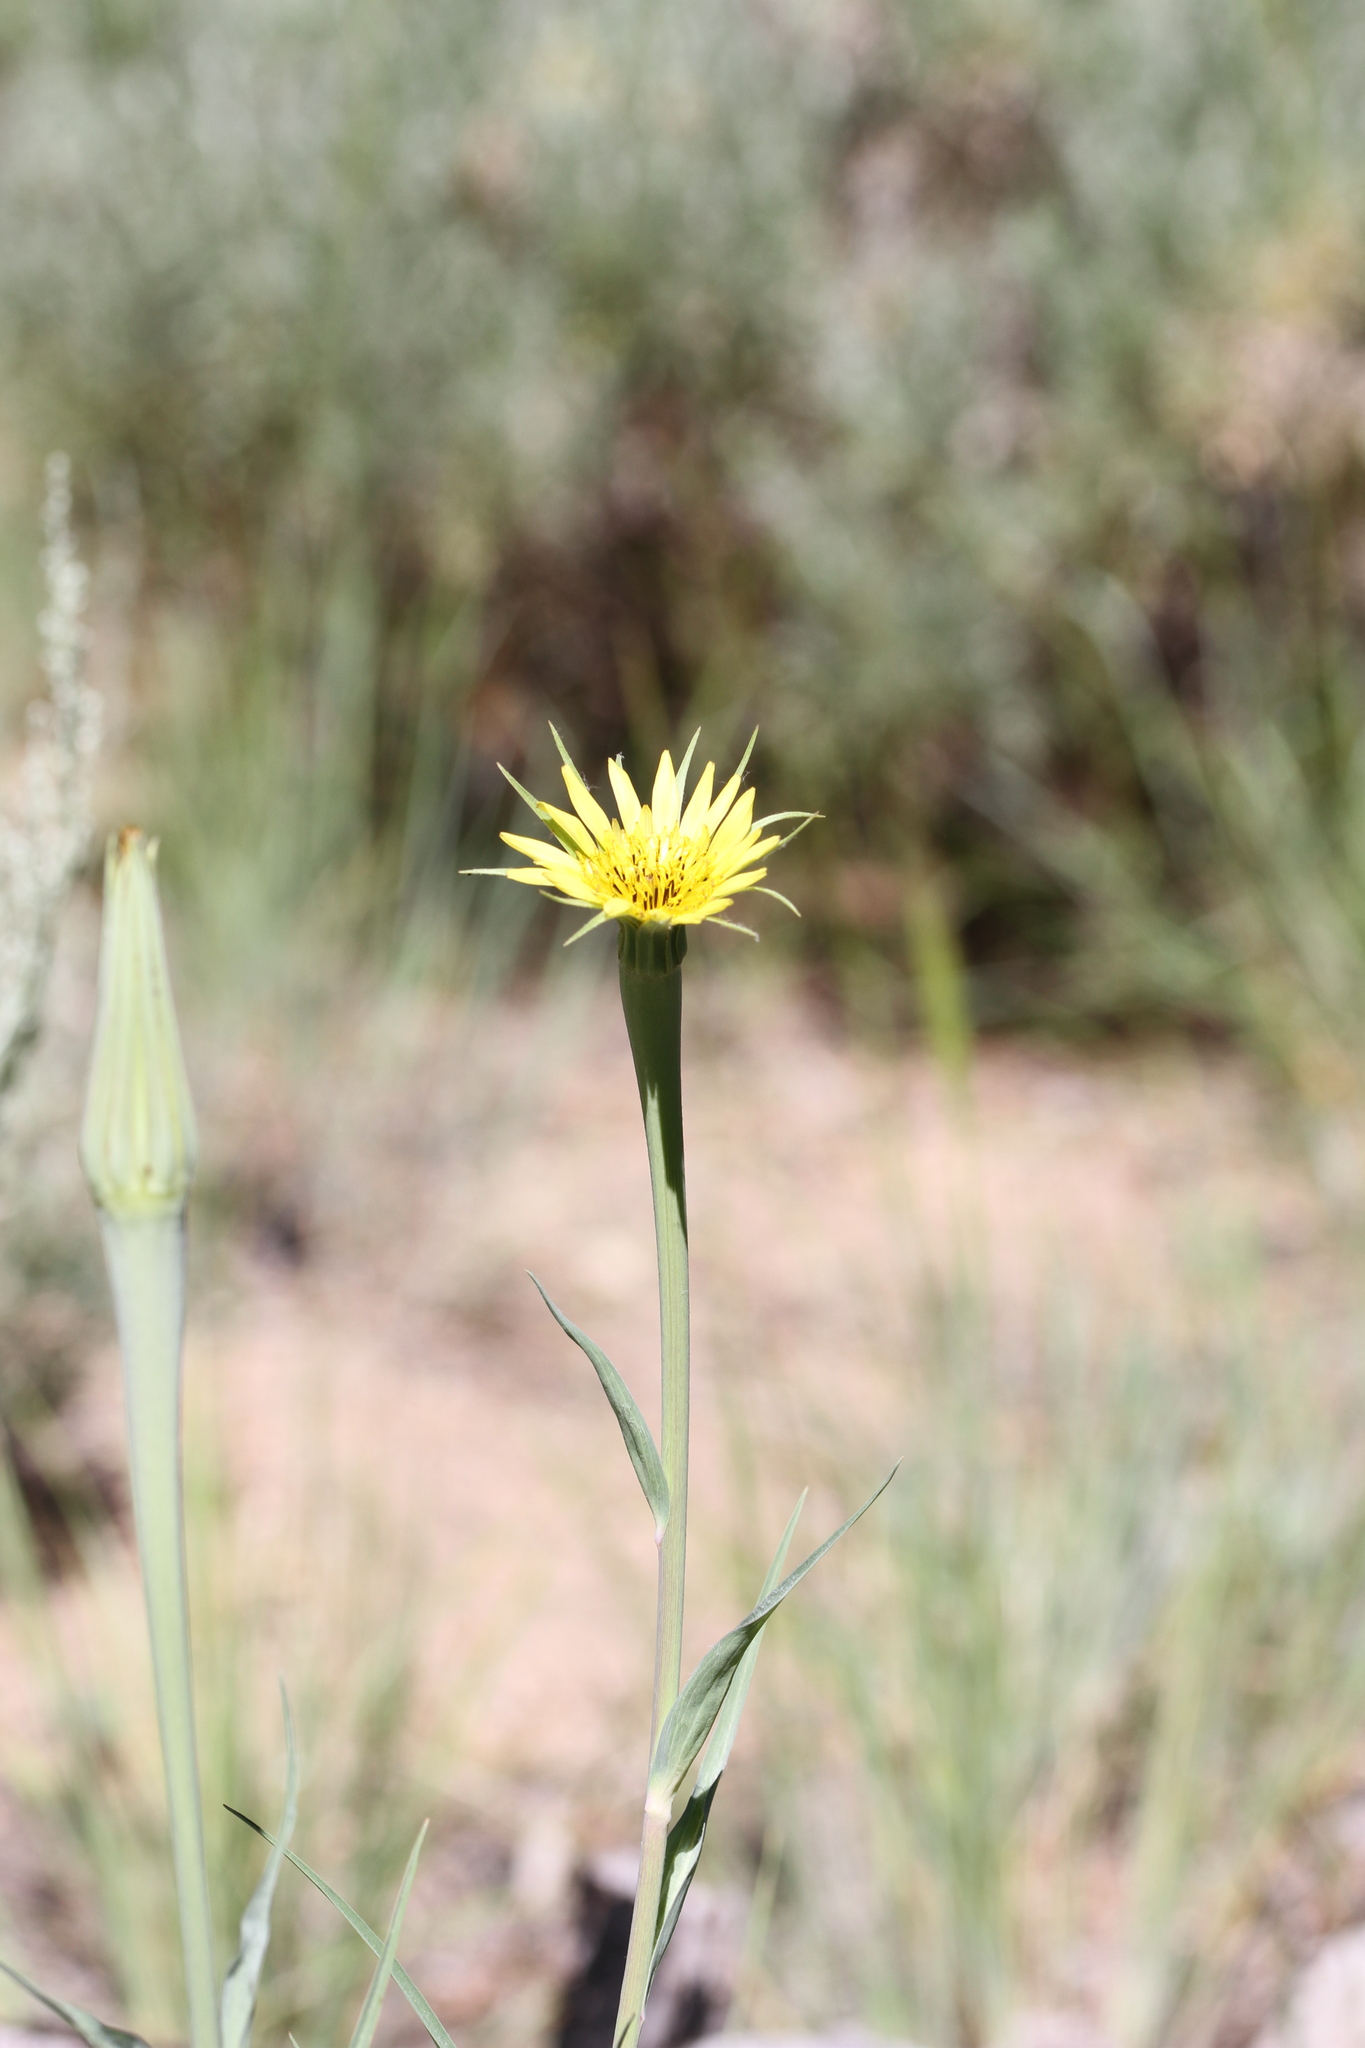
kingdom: Plantae
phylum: Tracheophyta
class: Magnoliopsida
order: Asterales
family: Asteraceae
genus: Tragopogon
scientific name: Tragopogon dubius
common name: Yellow salsify
